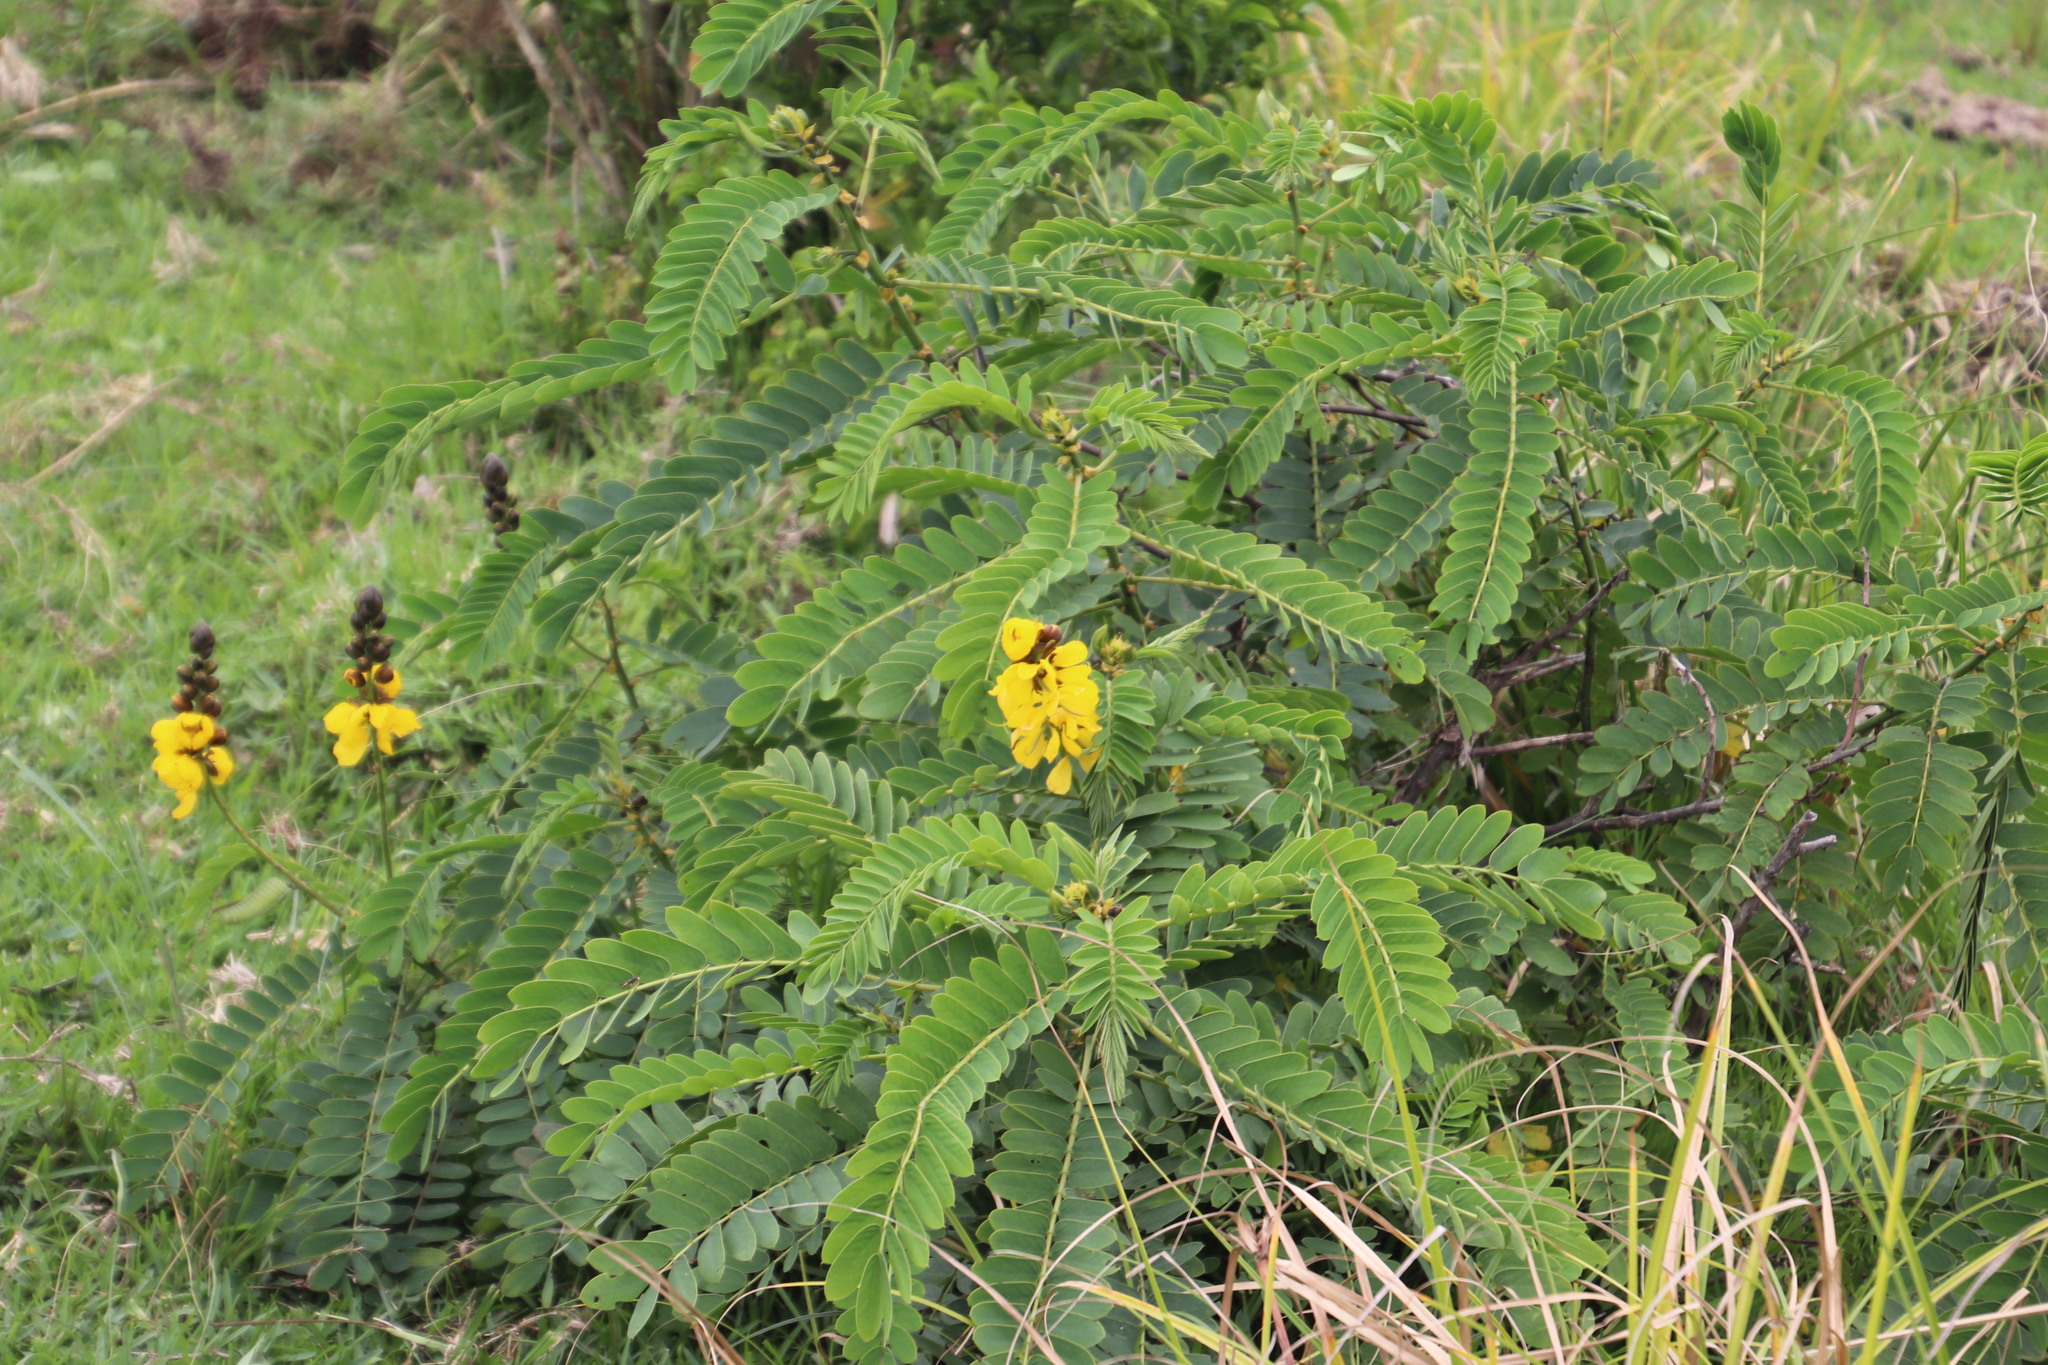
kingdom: Plantae
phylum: Tracheophyta
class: Magnoliopsida
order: Fabales
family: Fabaceae
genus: Senna
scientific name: Senna didymobotrya
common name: African senna
